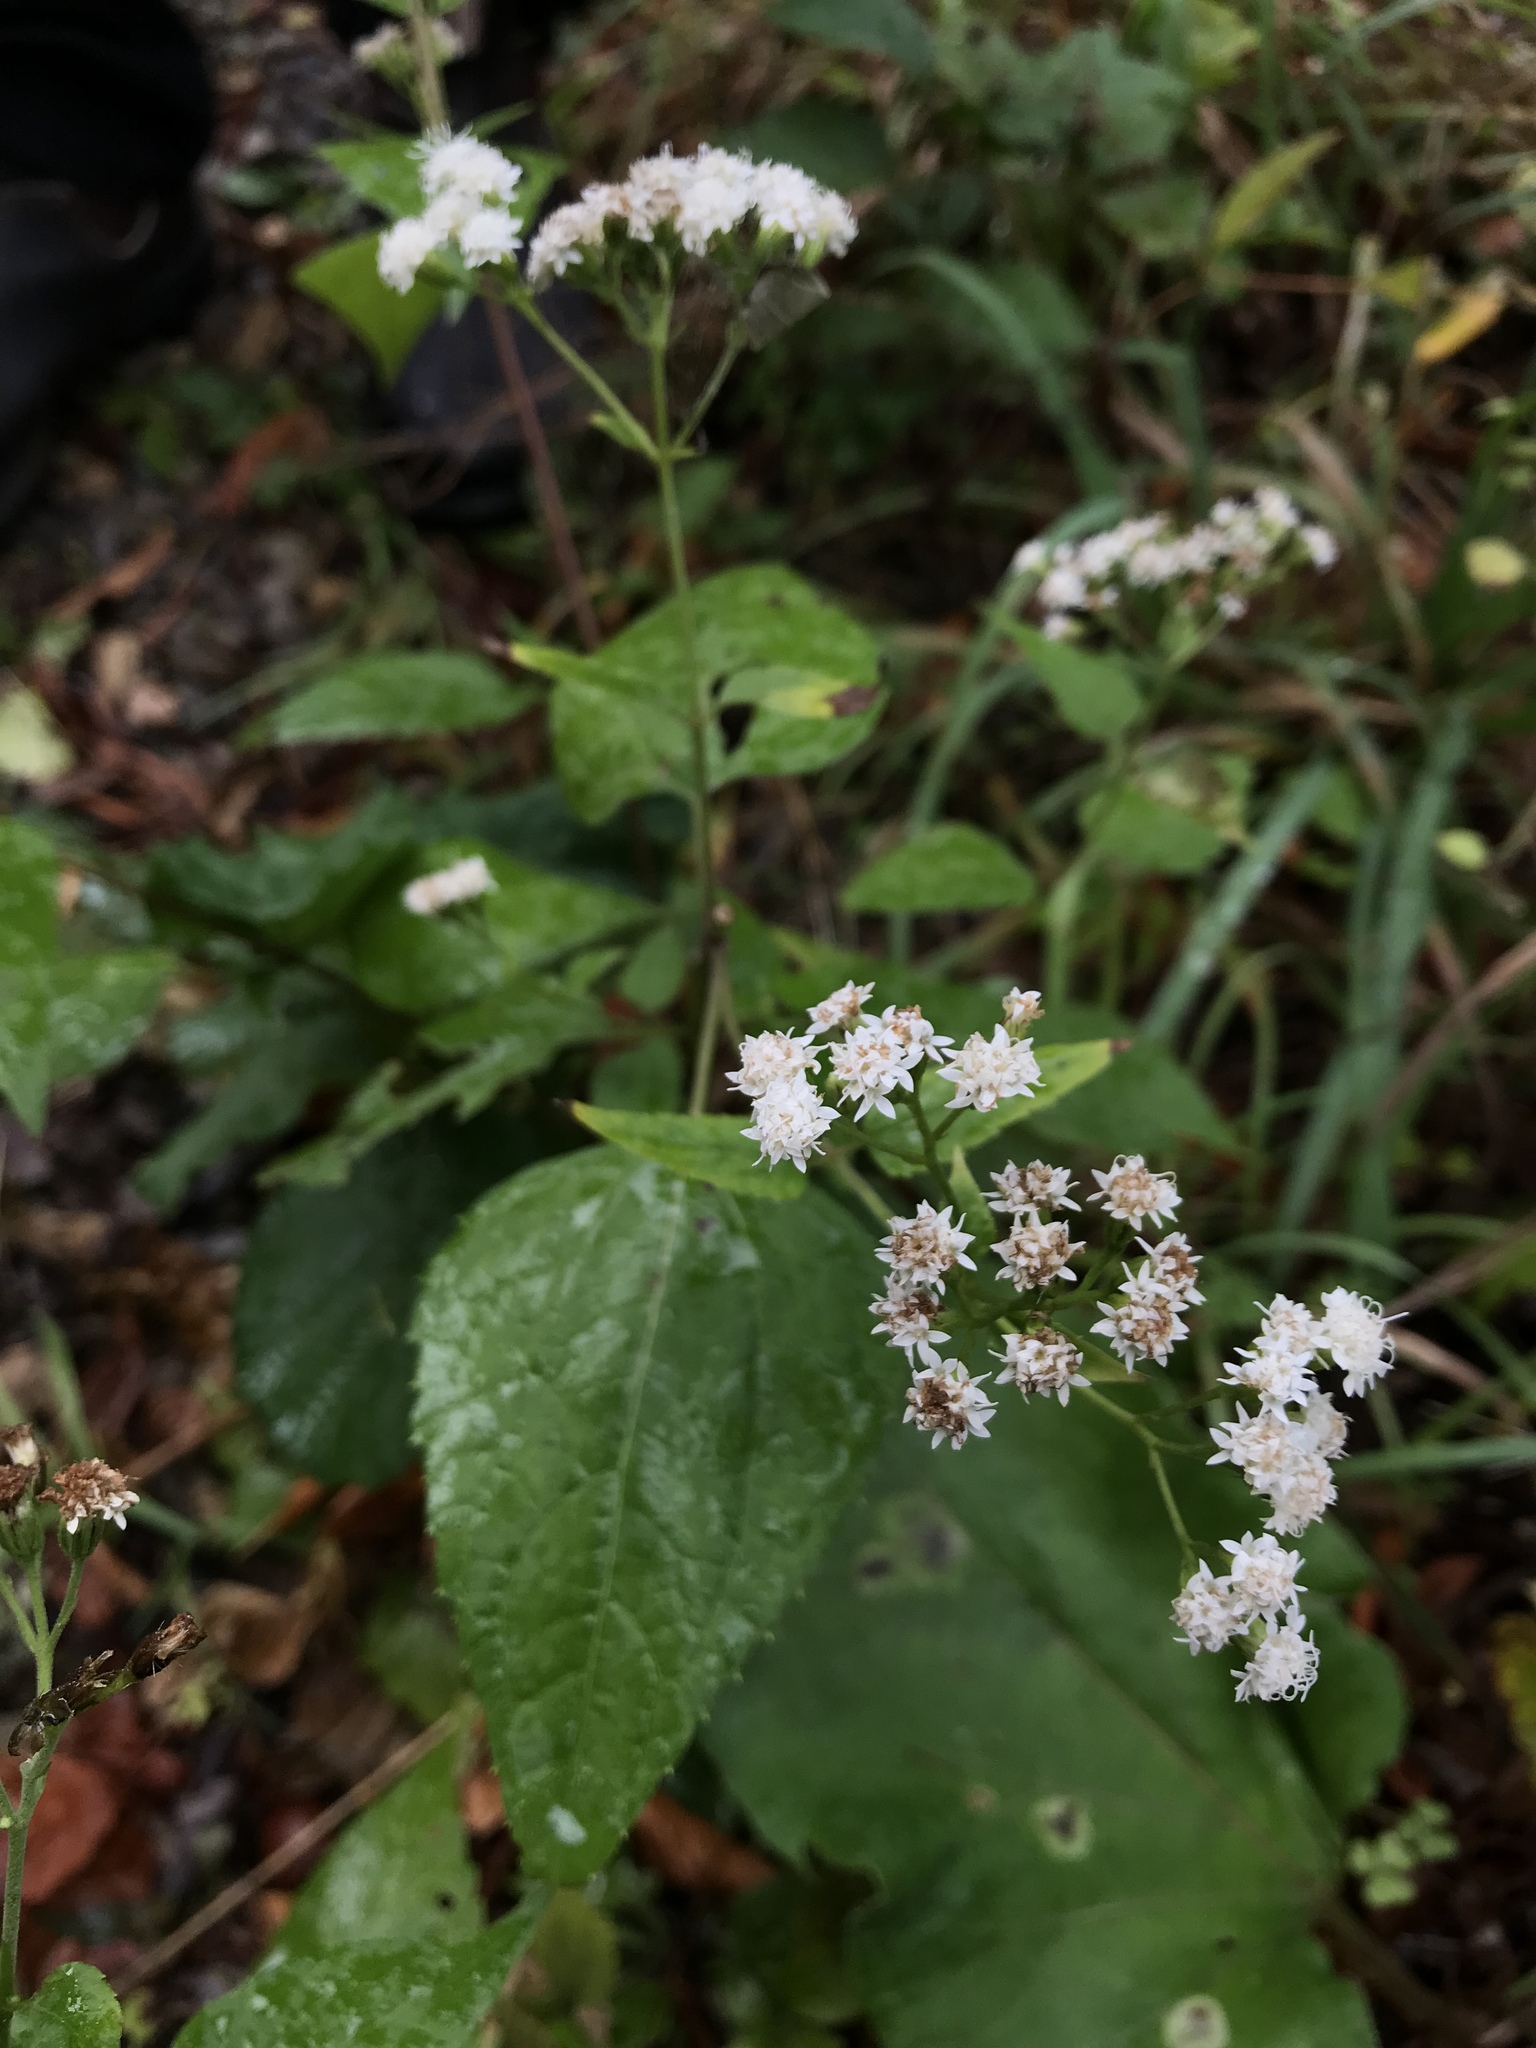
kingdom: Plantae
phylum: Tracheophyta
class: Magnoliopsida
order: Asterales
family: Asteraceae
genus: Ageratina
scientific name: Ageratina altissima
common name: White snakeroot
